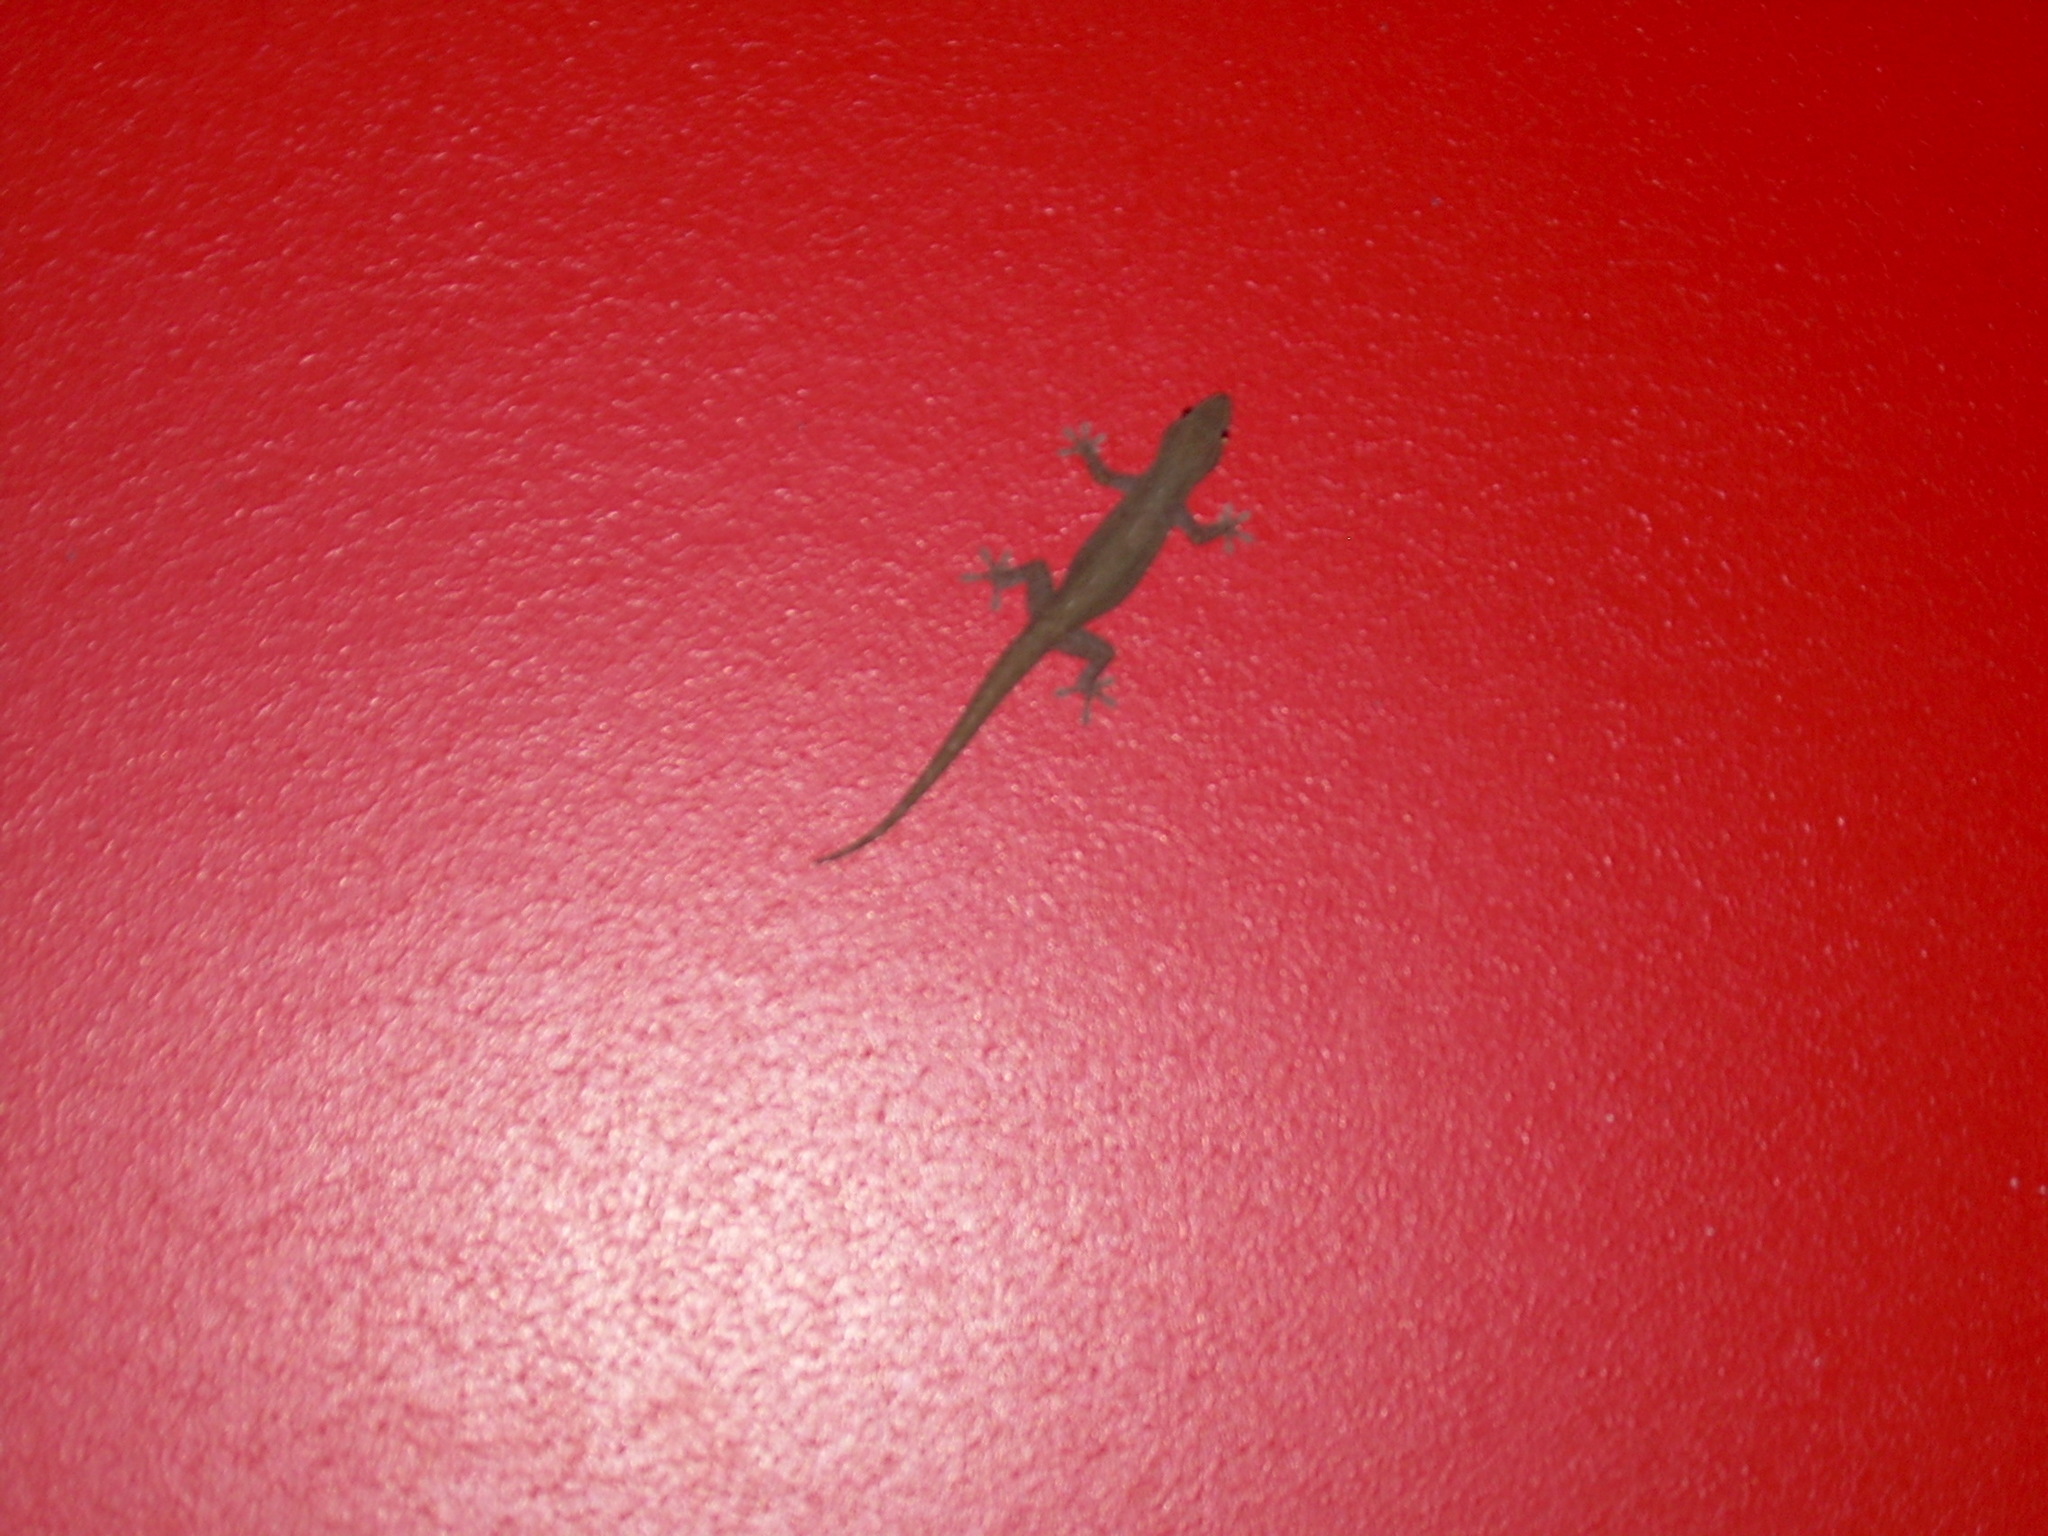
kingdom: Animalia
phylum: Chordata
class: Squamata
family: Gekkonidae
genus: Hemidactylus
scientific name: Hemidactylus frenatus
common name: Common house gecko
